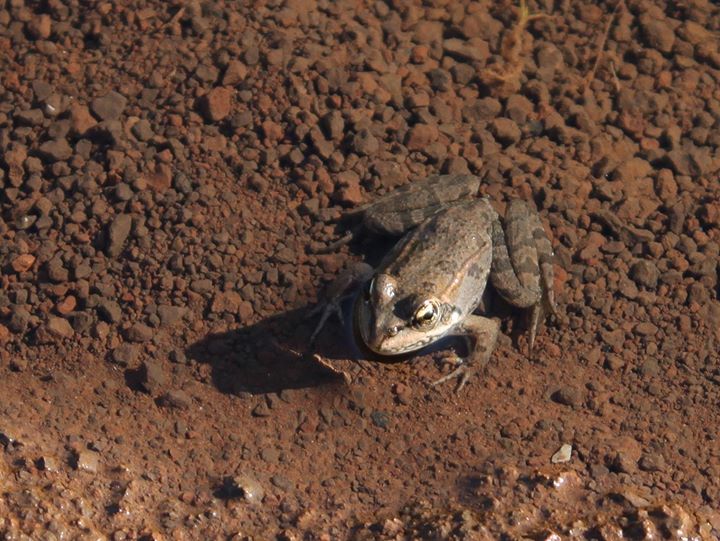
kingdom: Animalia
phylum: Chordata
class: Amphibia
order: Anura
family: Ranidae
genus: Pelophylax
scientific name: Pelophylax
